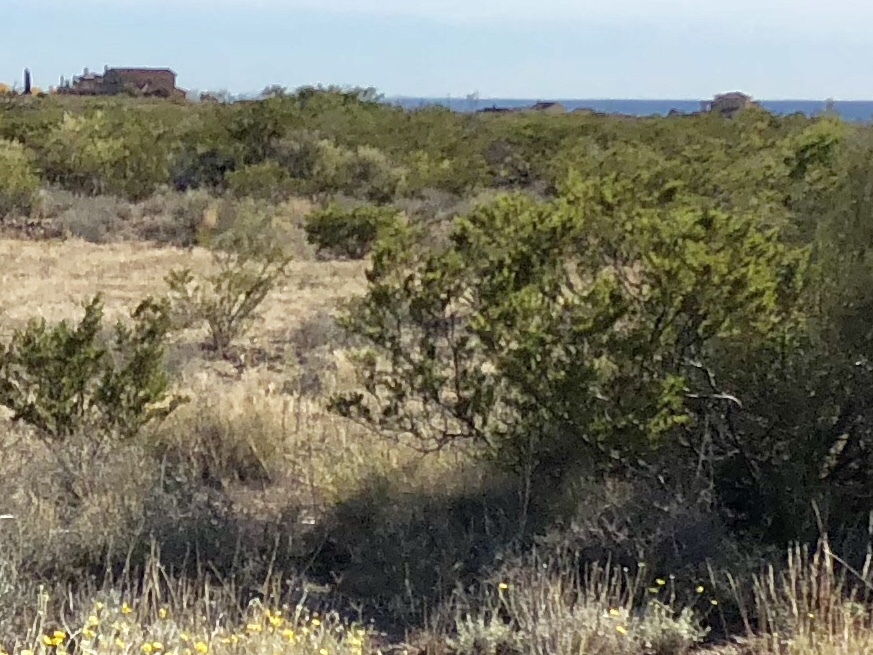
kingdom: Plantae
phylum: Tracheophyta
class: Magnoliopsida
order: Zygophyllales
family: Zygophyllaceae
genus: Larrea
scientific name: Larrea tridentata
